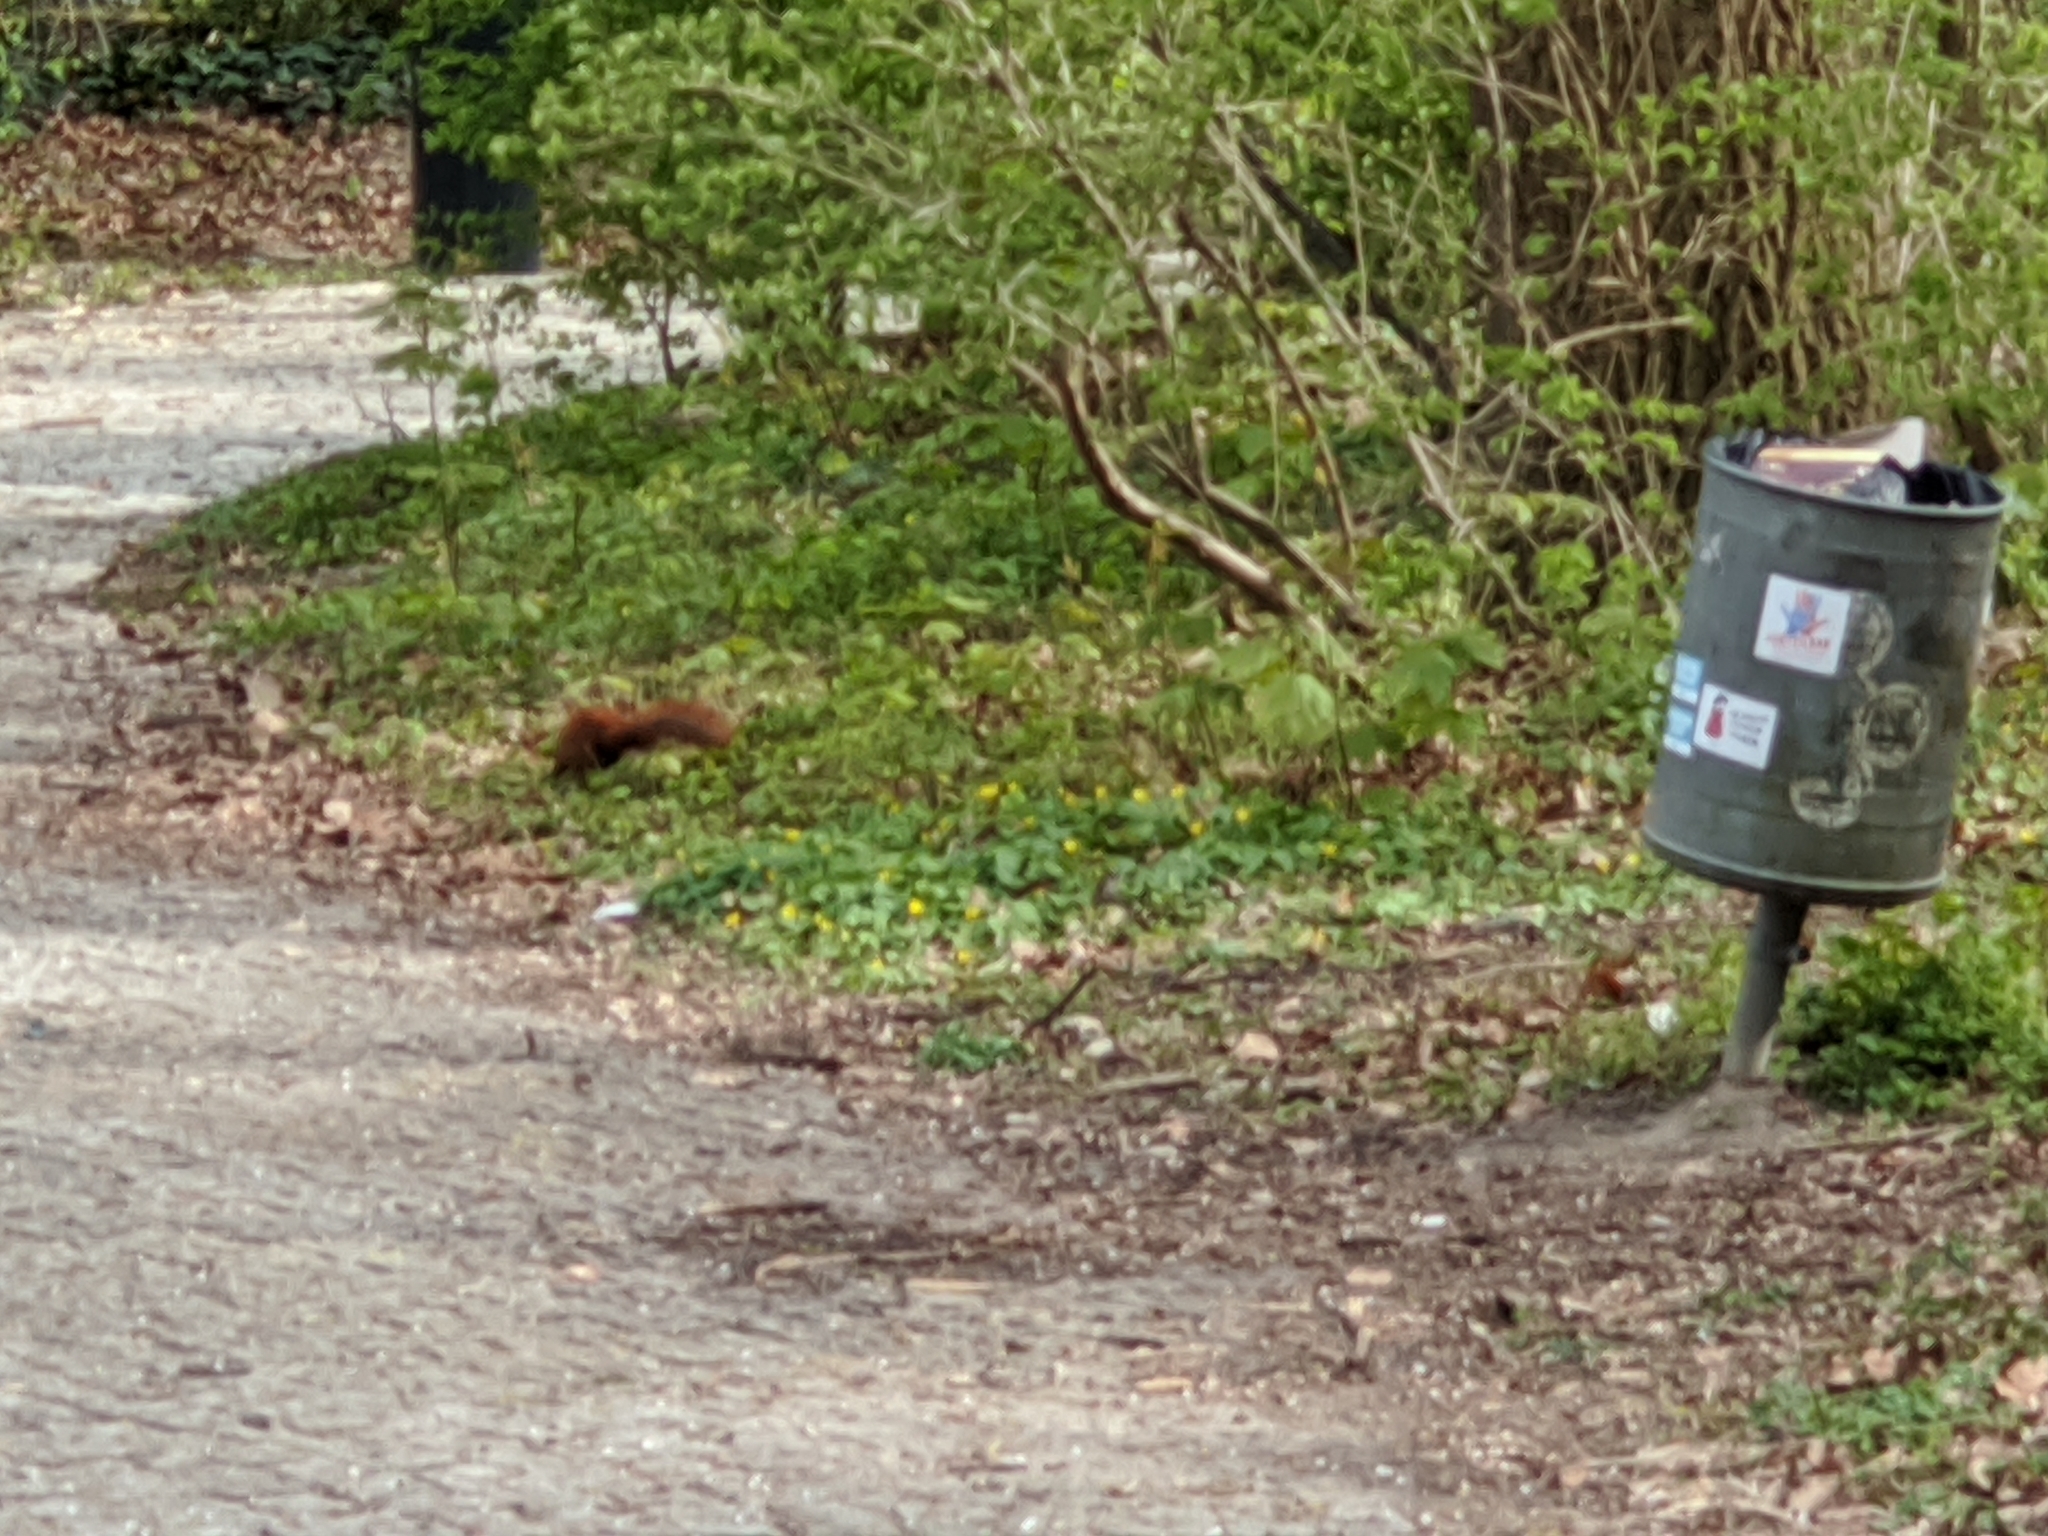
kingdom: Animalia
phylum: Chordata
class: Mammalia
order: Rodentia
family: Sciuridae
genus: Sciurus
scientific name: Sciurus vulgaris
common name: Eurasian red squirrel
